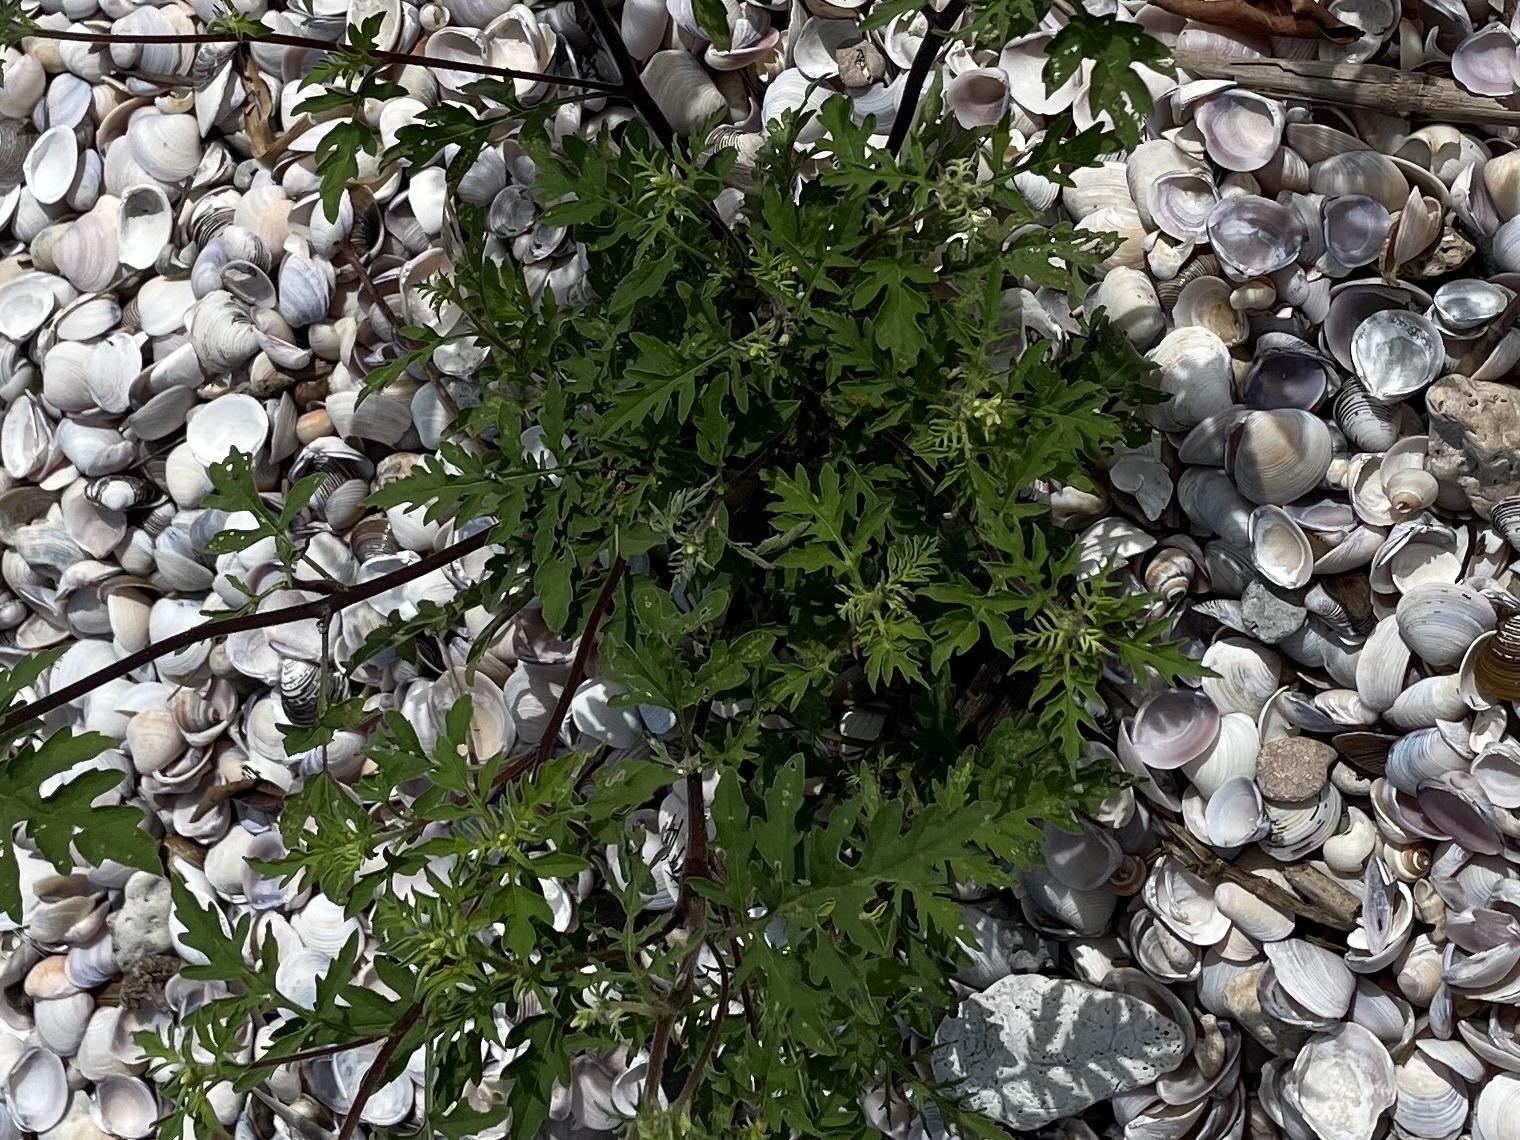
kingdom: Plantae
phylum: Tracheophyta
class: Magnoliopsida
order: Asterales
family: Asteraceae
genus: Ambrosia
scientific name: Ambrosia artemisiifolia
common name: Annual ragweed
